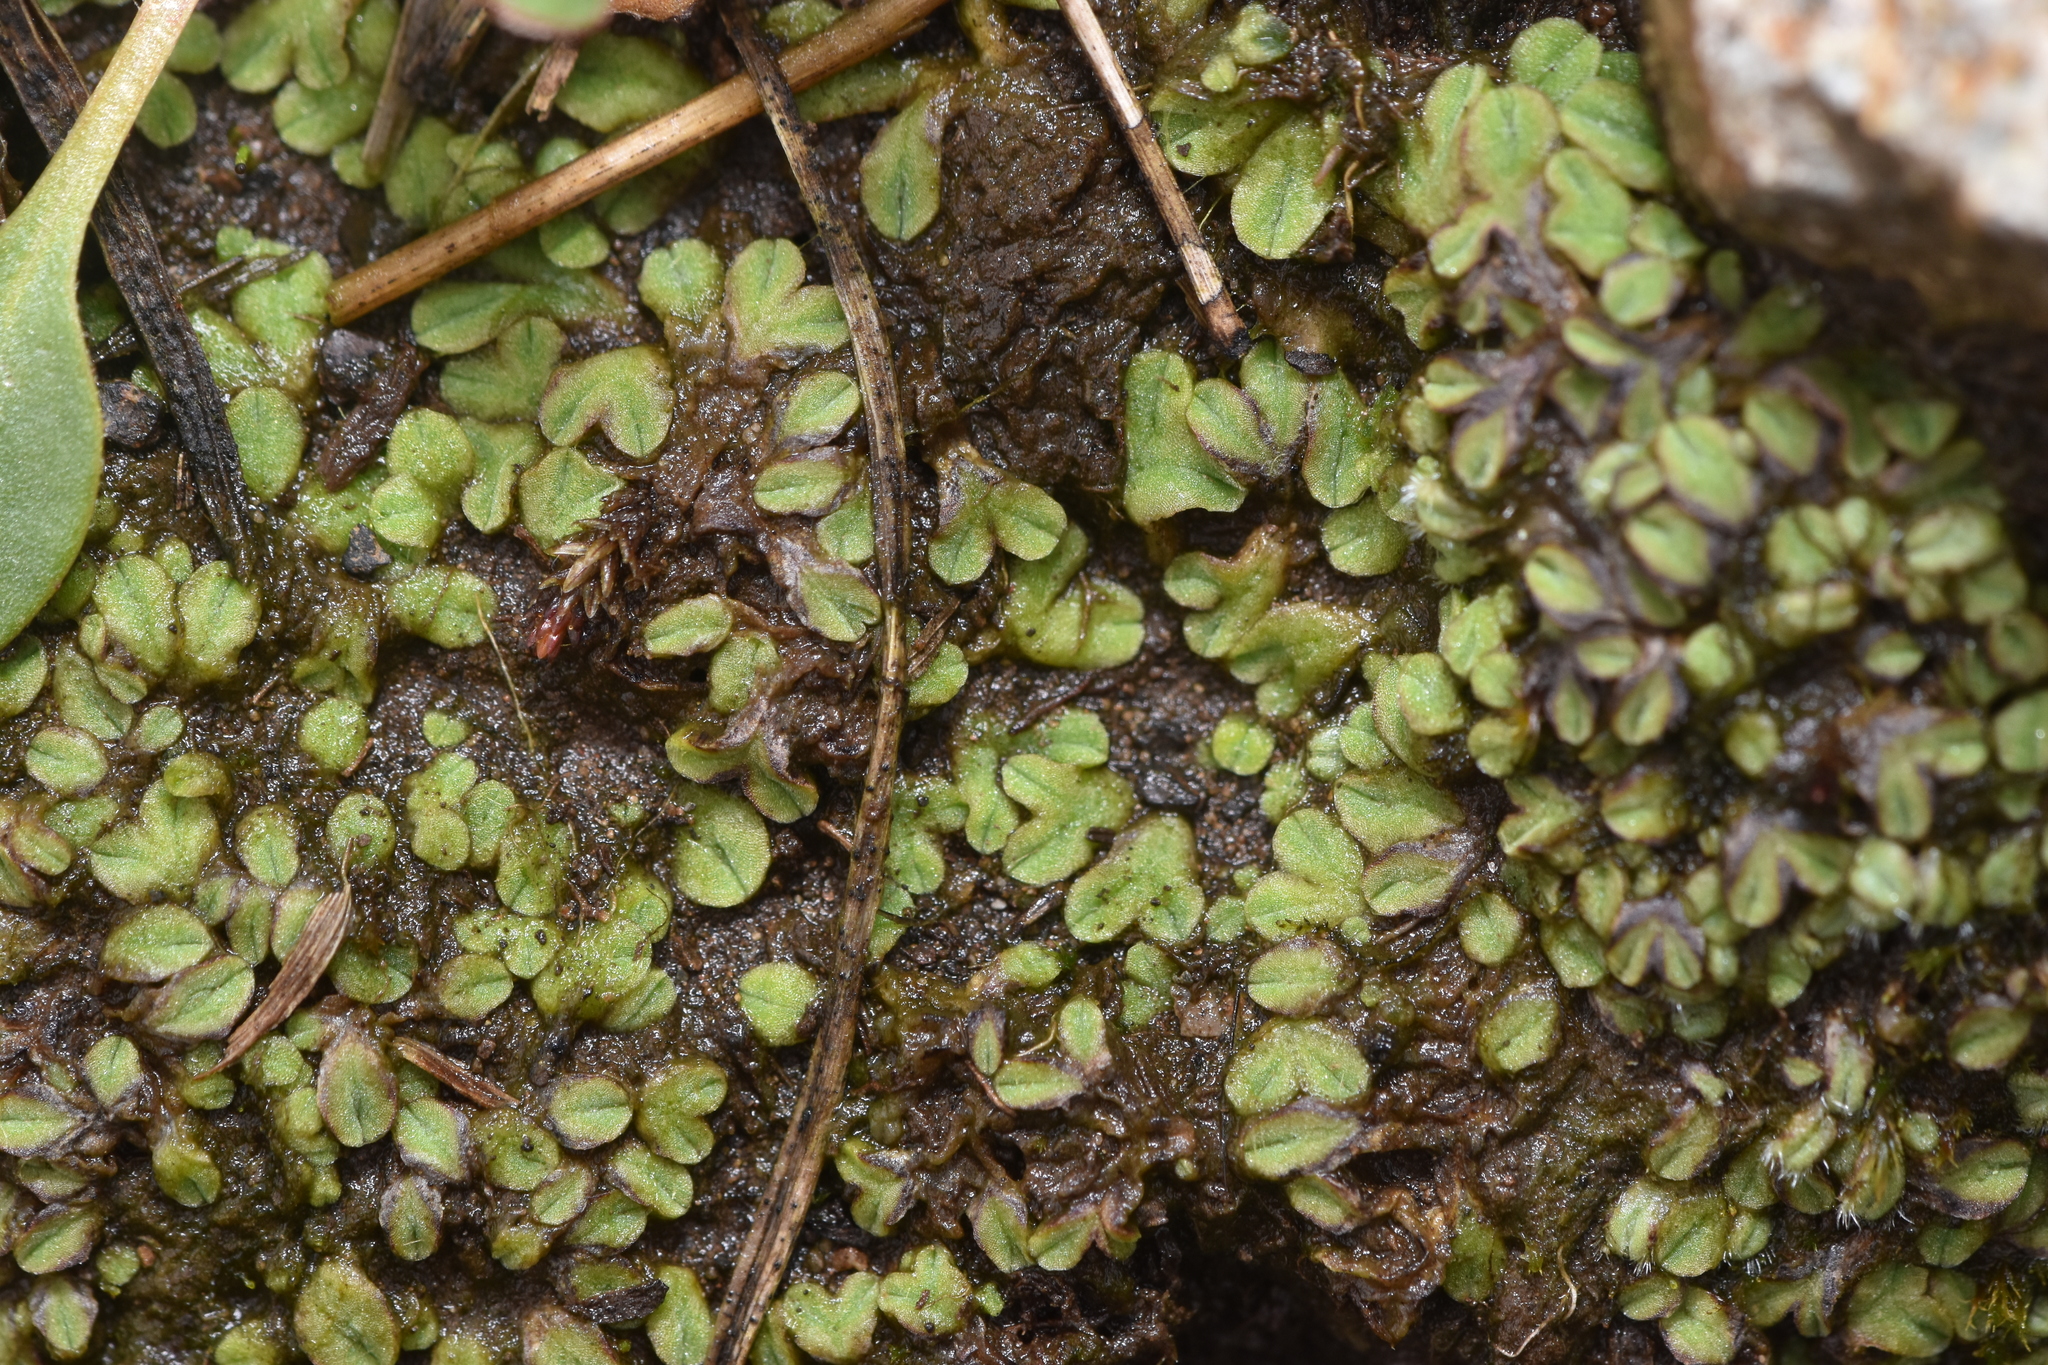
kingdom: Plantae
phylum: Marchantiophyta
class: Marchantiopsida
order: Marchantiales
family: Ricciaceae
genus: Riccia
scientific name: Riccia sorocarpa
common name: Common crystalwort
